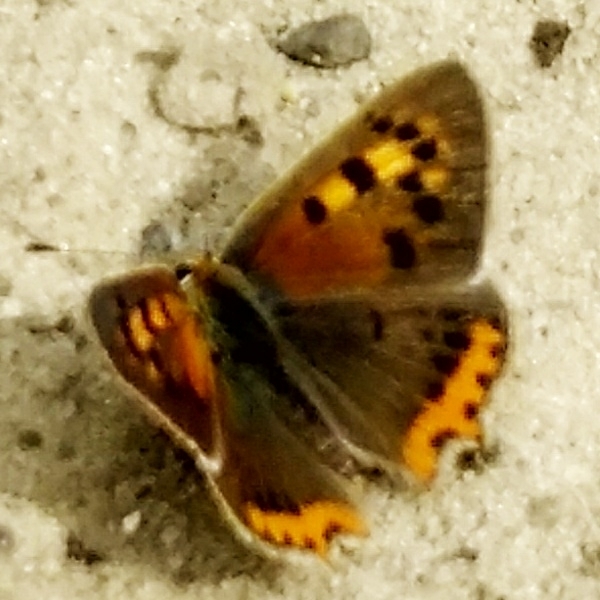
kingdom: Animalia
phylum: Arthropoda
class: Insecta
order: Lepidoptera
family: Lycaenidae
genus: Lycaena
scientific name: Lycaena phlaeas
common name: Small copper
